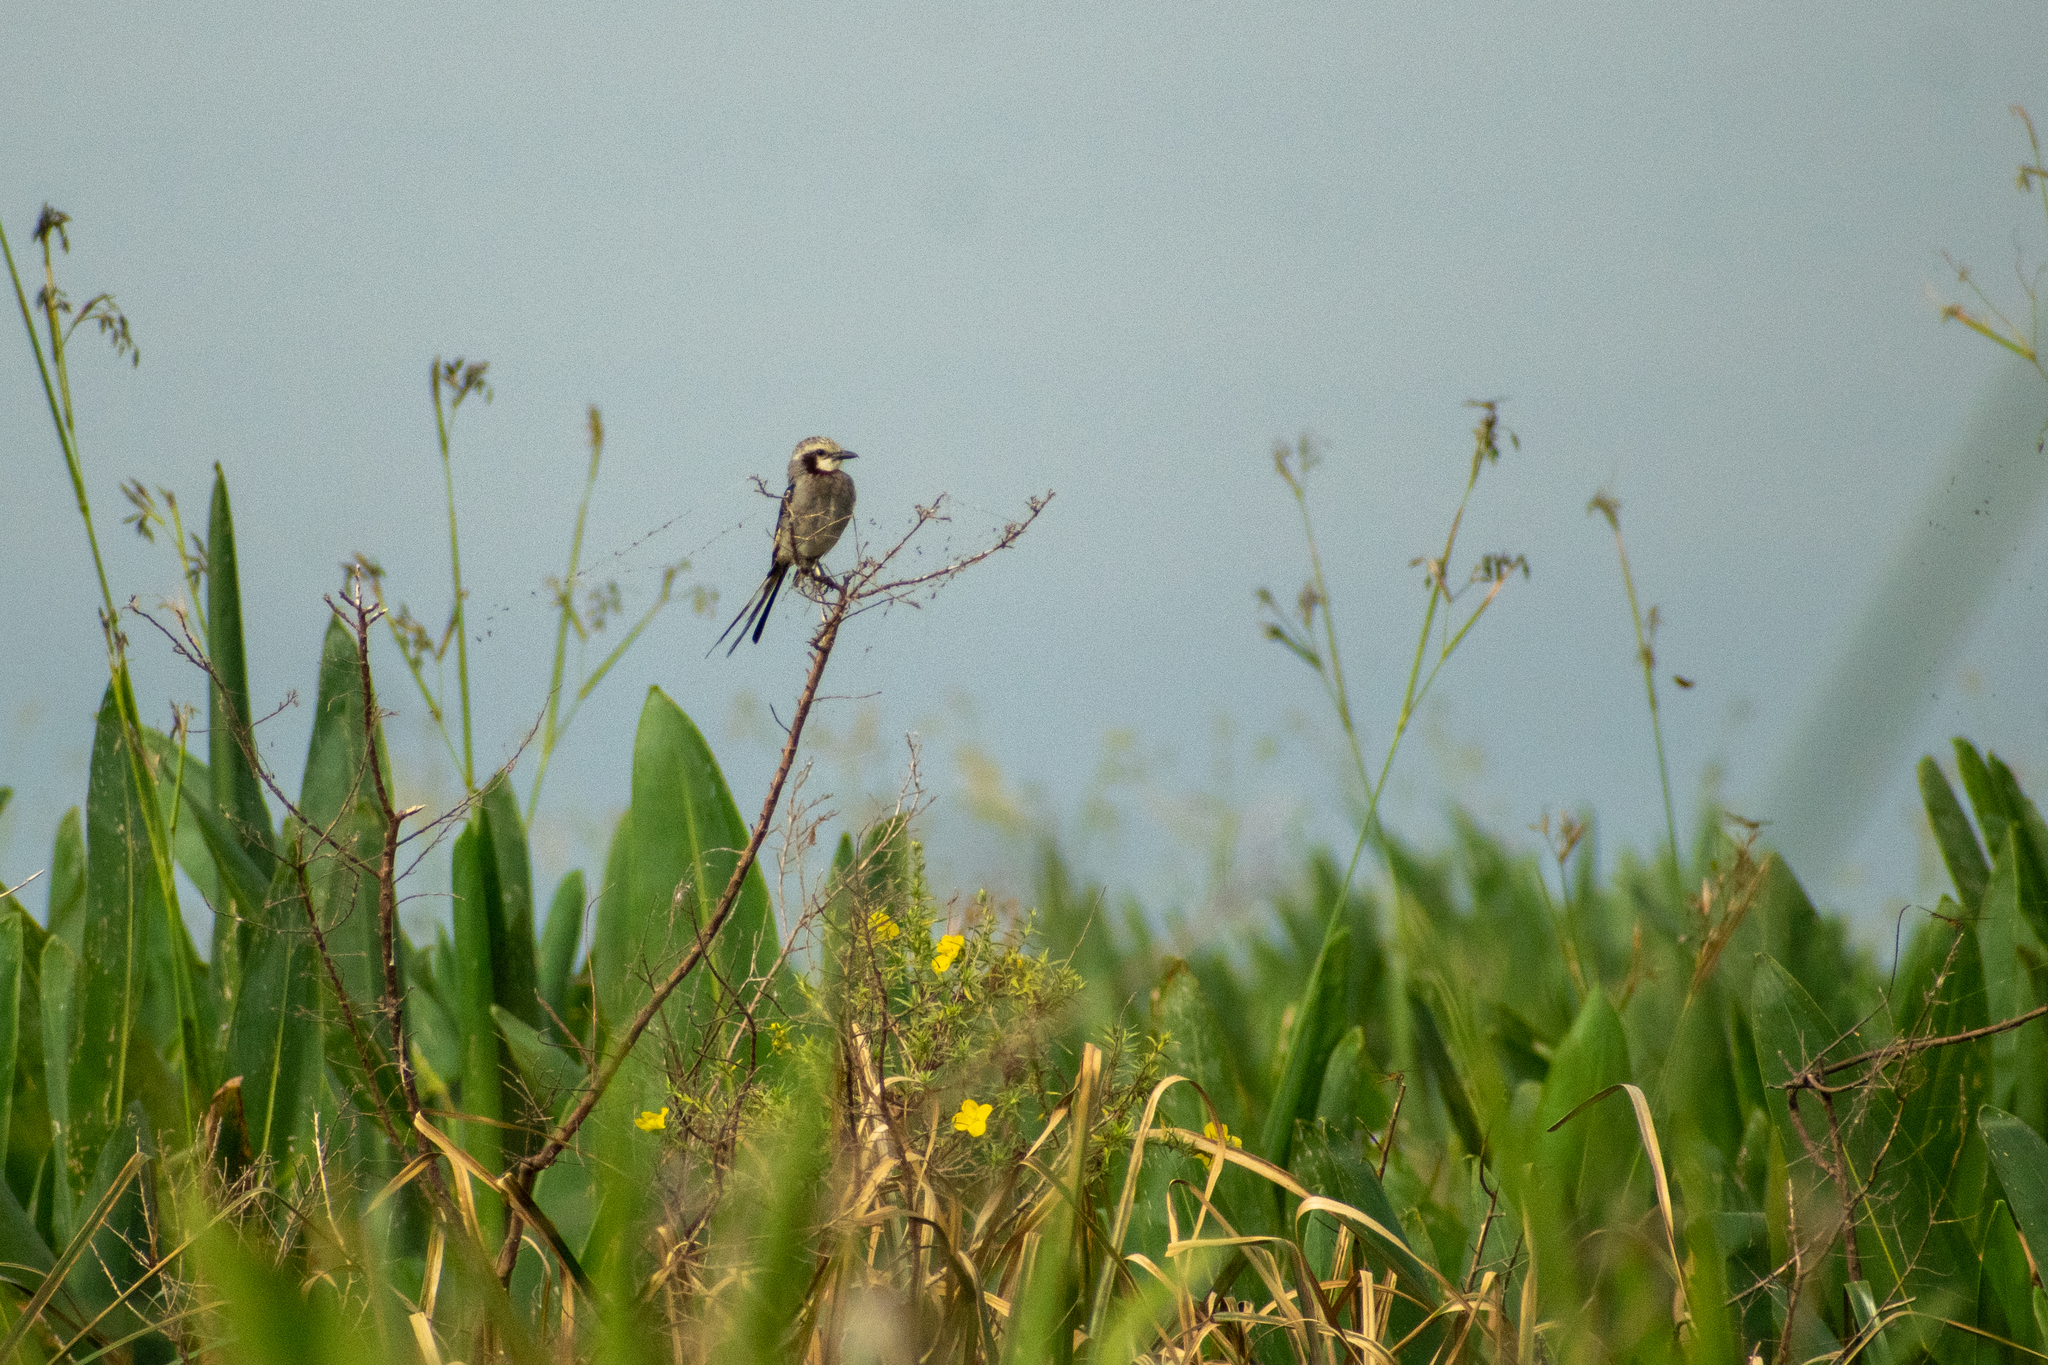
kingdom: Animalia
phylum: Chordata
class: Aves
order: Passeriformes
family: Tyrannidae
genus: Gubernetes
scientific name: Gubernetes yetapa
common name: Streamer-tailed tyrant
